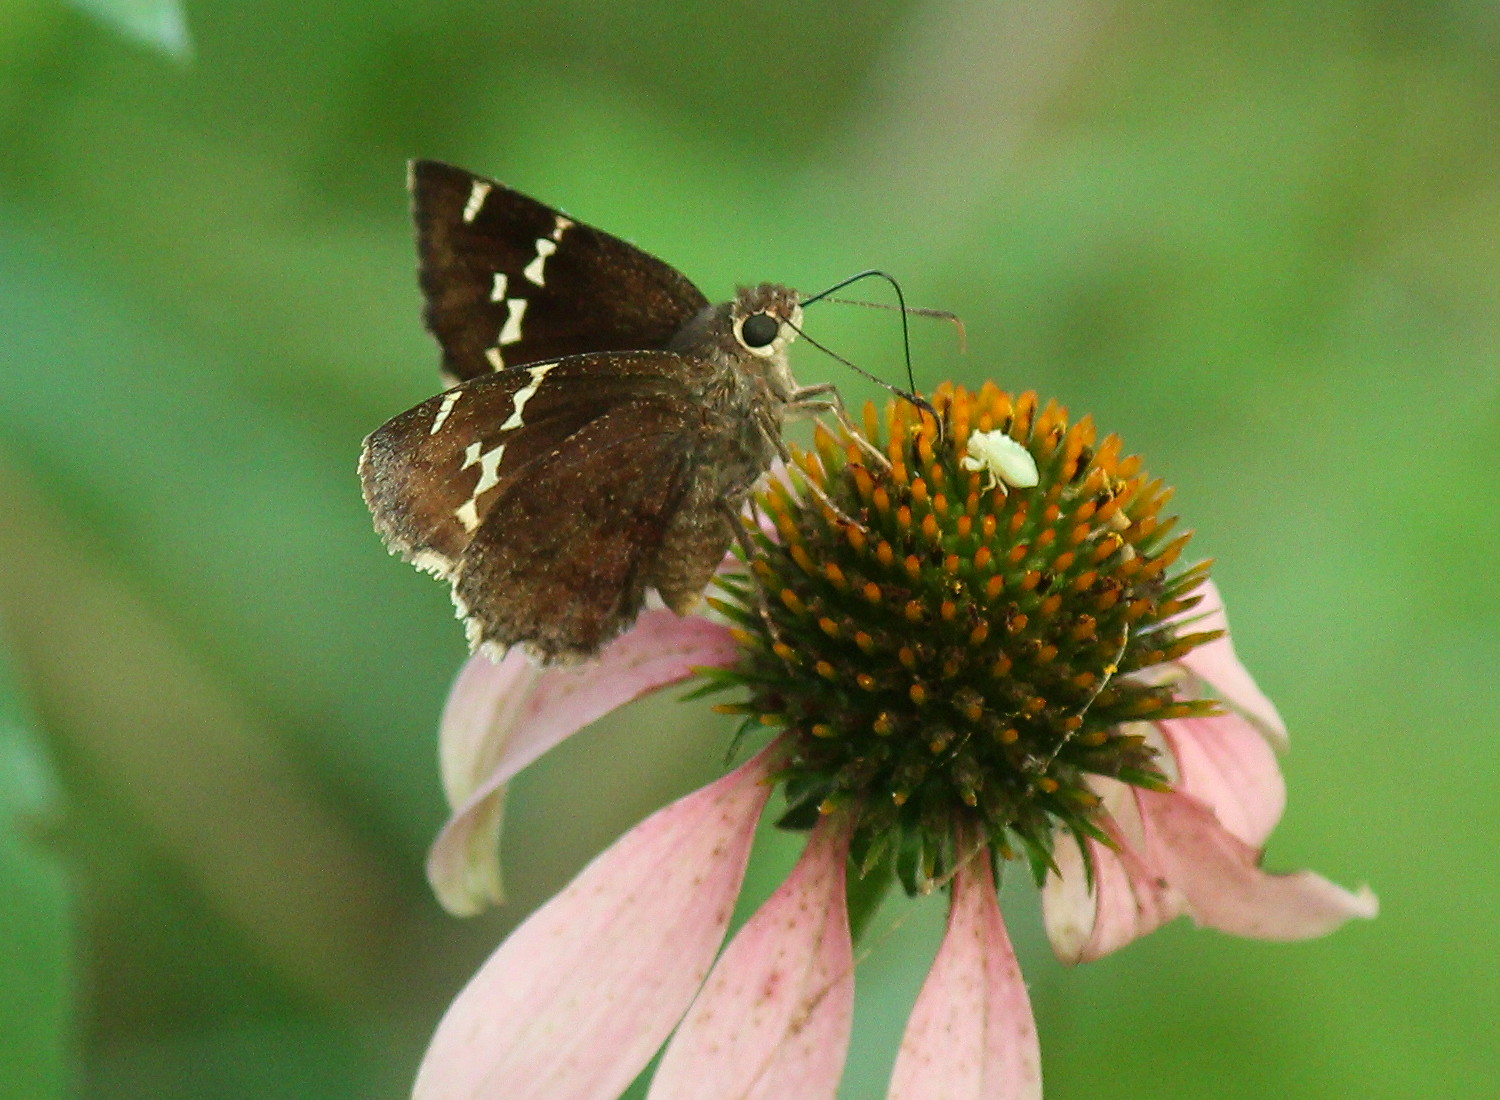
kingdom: Animalia
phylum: Arthropoda
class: Insecta
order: Lepidoptera
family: Hesperiidae
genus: Thorybes
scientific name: Thorybes daunus
